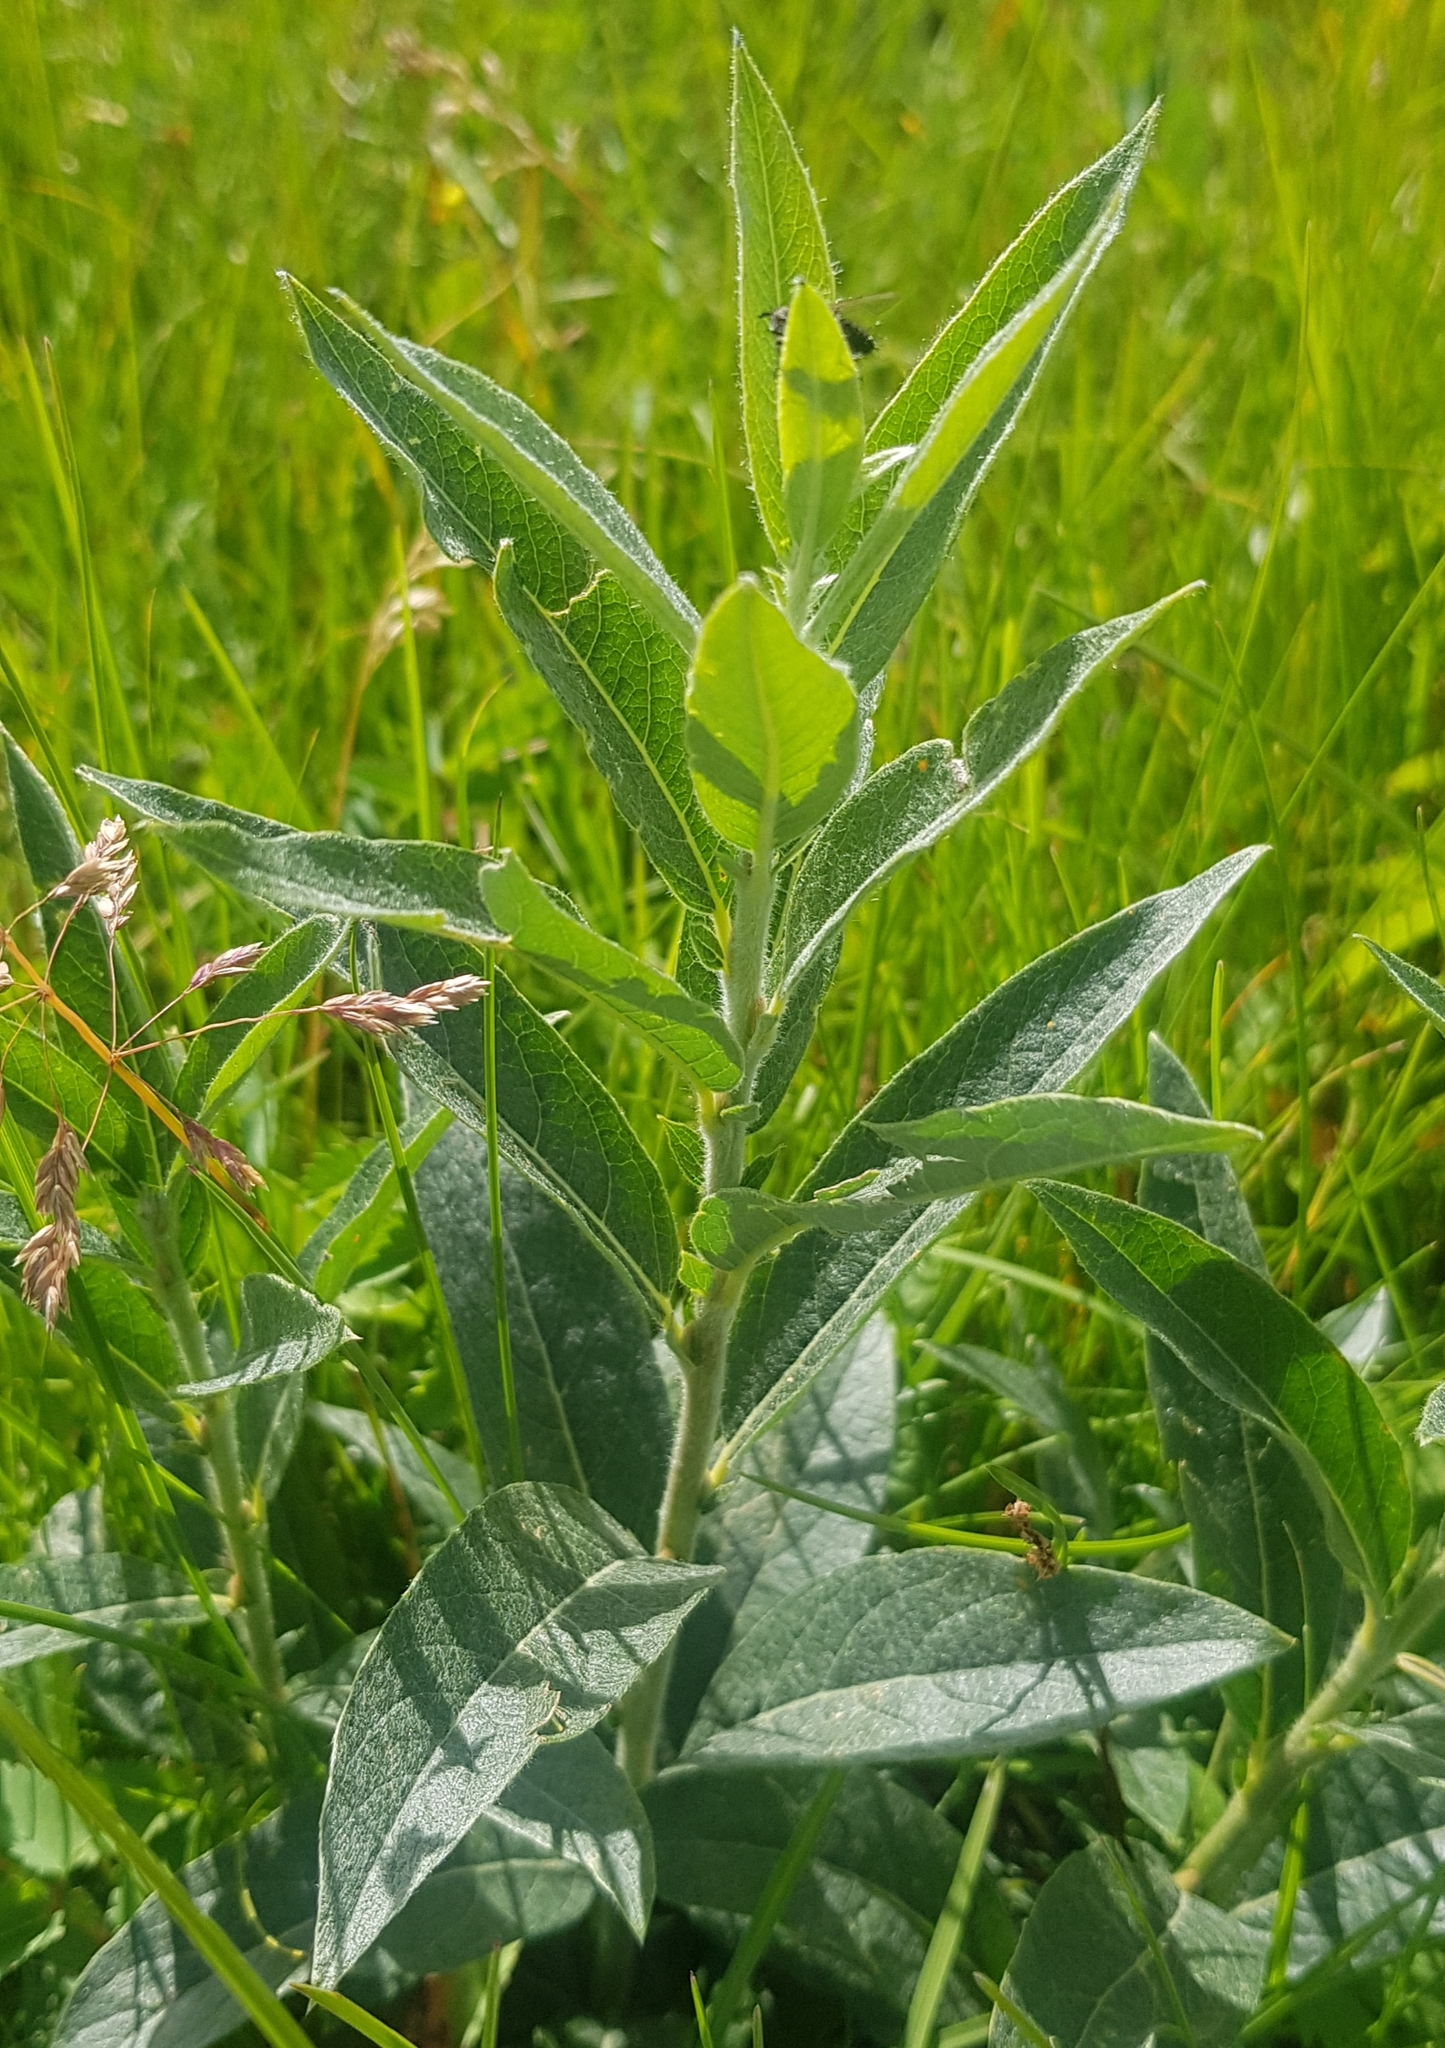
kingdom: Plantae
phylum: Tracheophyta
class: Magnoliopsida
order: Malpighiales
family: Salicaceae
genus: Salix
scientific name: Salix glauca
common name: Glaucous willow
